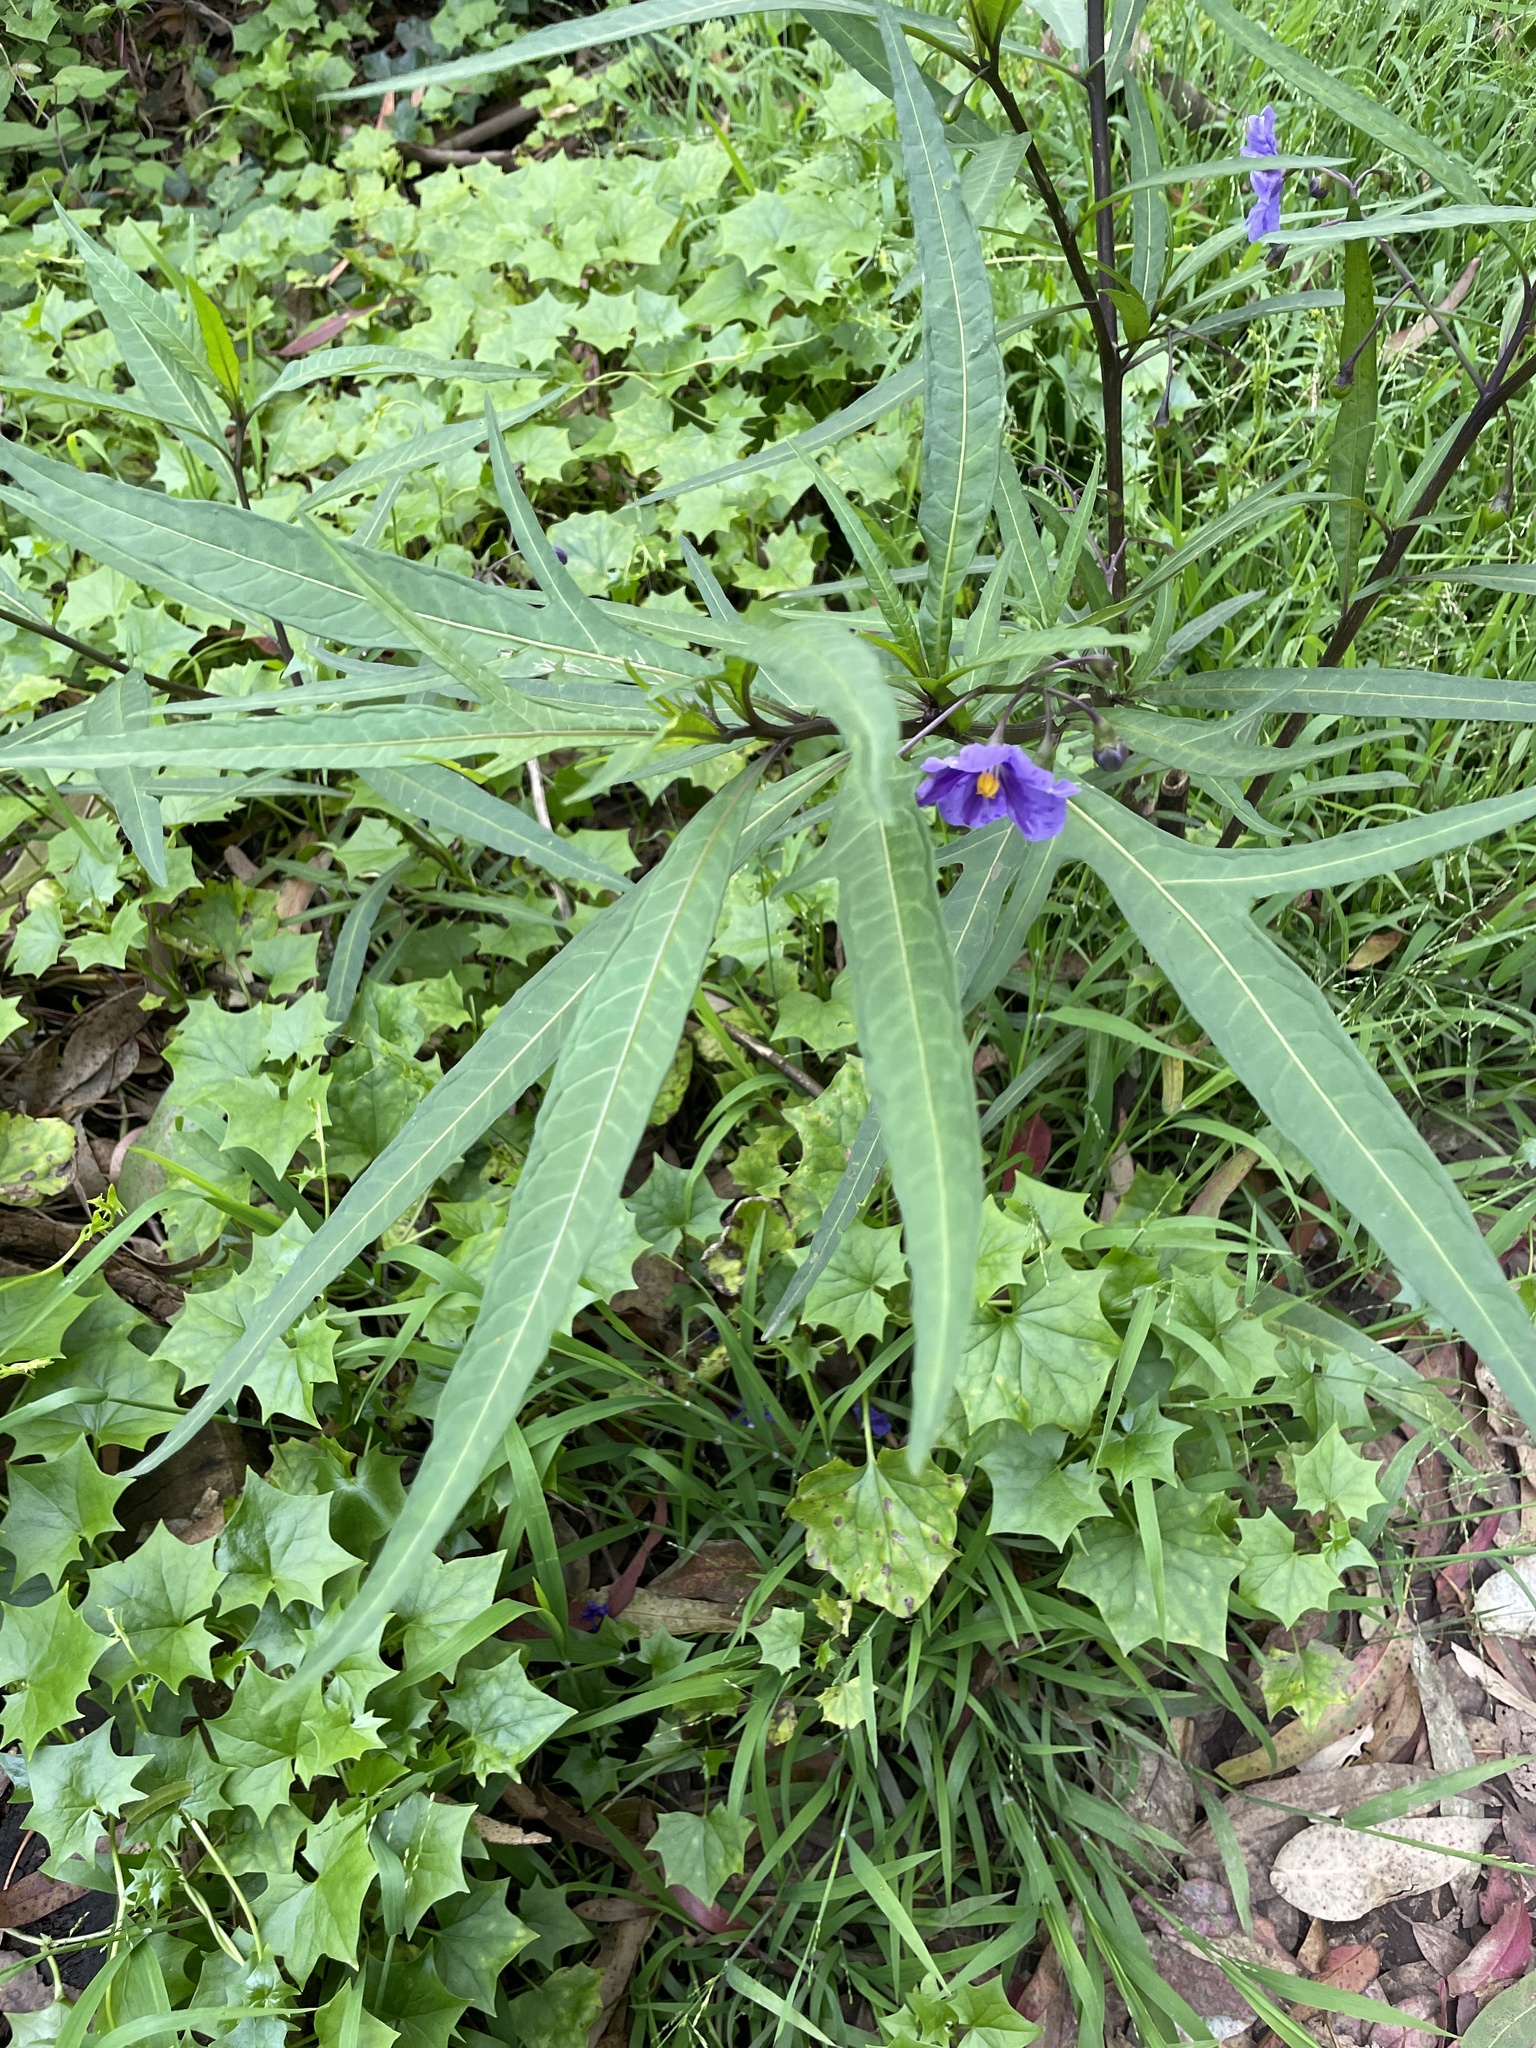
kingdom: Plantae
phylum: Tracheophyta
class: Magnoliopsida
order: Solanales
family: Solanaceae
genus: Solanum
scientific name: Solanum laciniatum
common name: Kangaroo-apple
